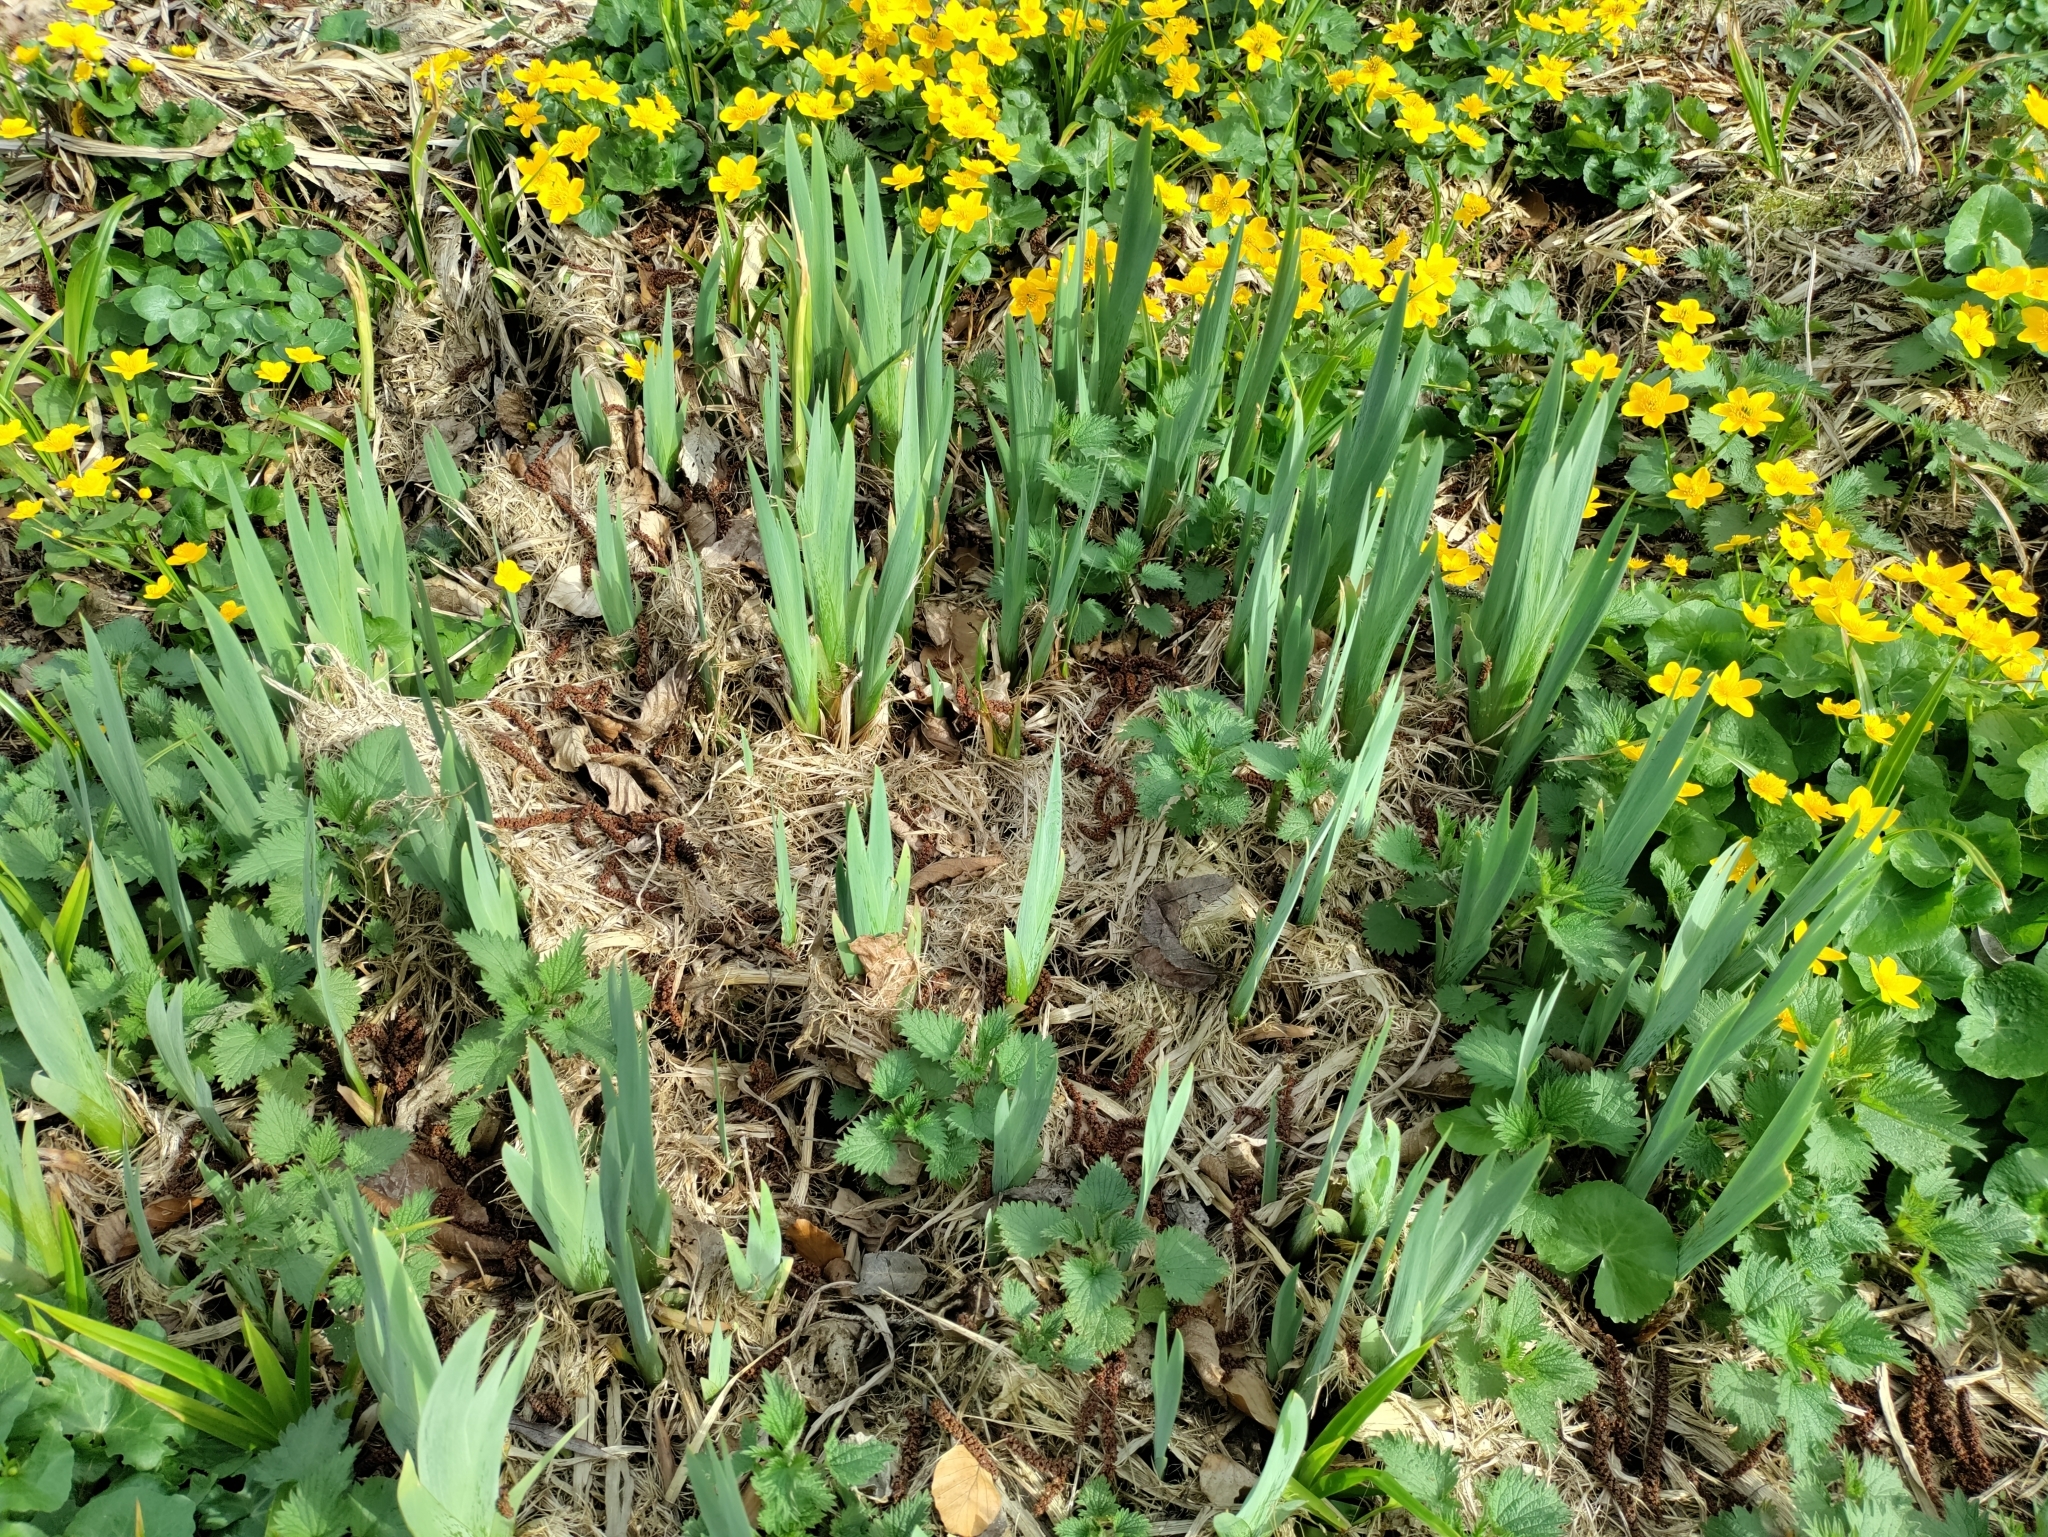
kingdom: Plantae
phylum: Tracheophyta
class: Liliopsida
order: Asparagales
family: Iridaceae
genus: Iris
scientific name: Iris pseudacorus
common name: Yellow flag
